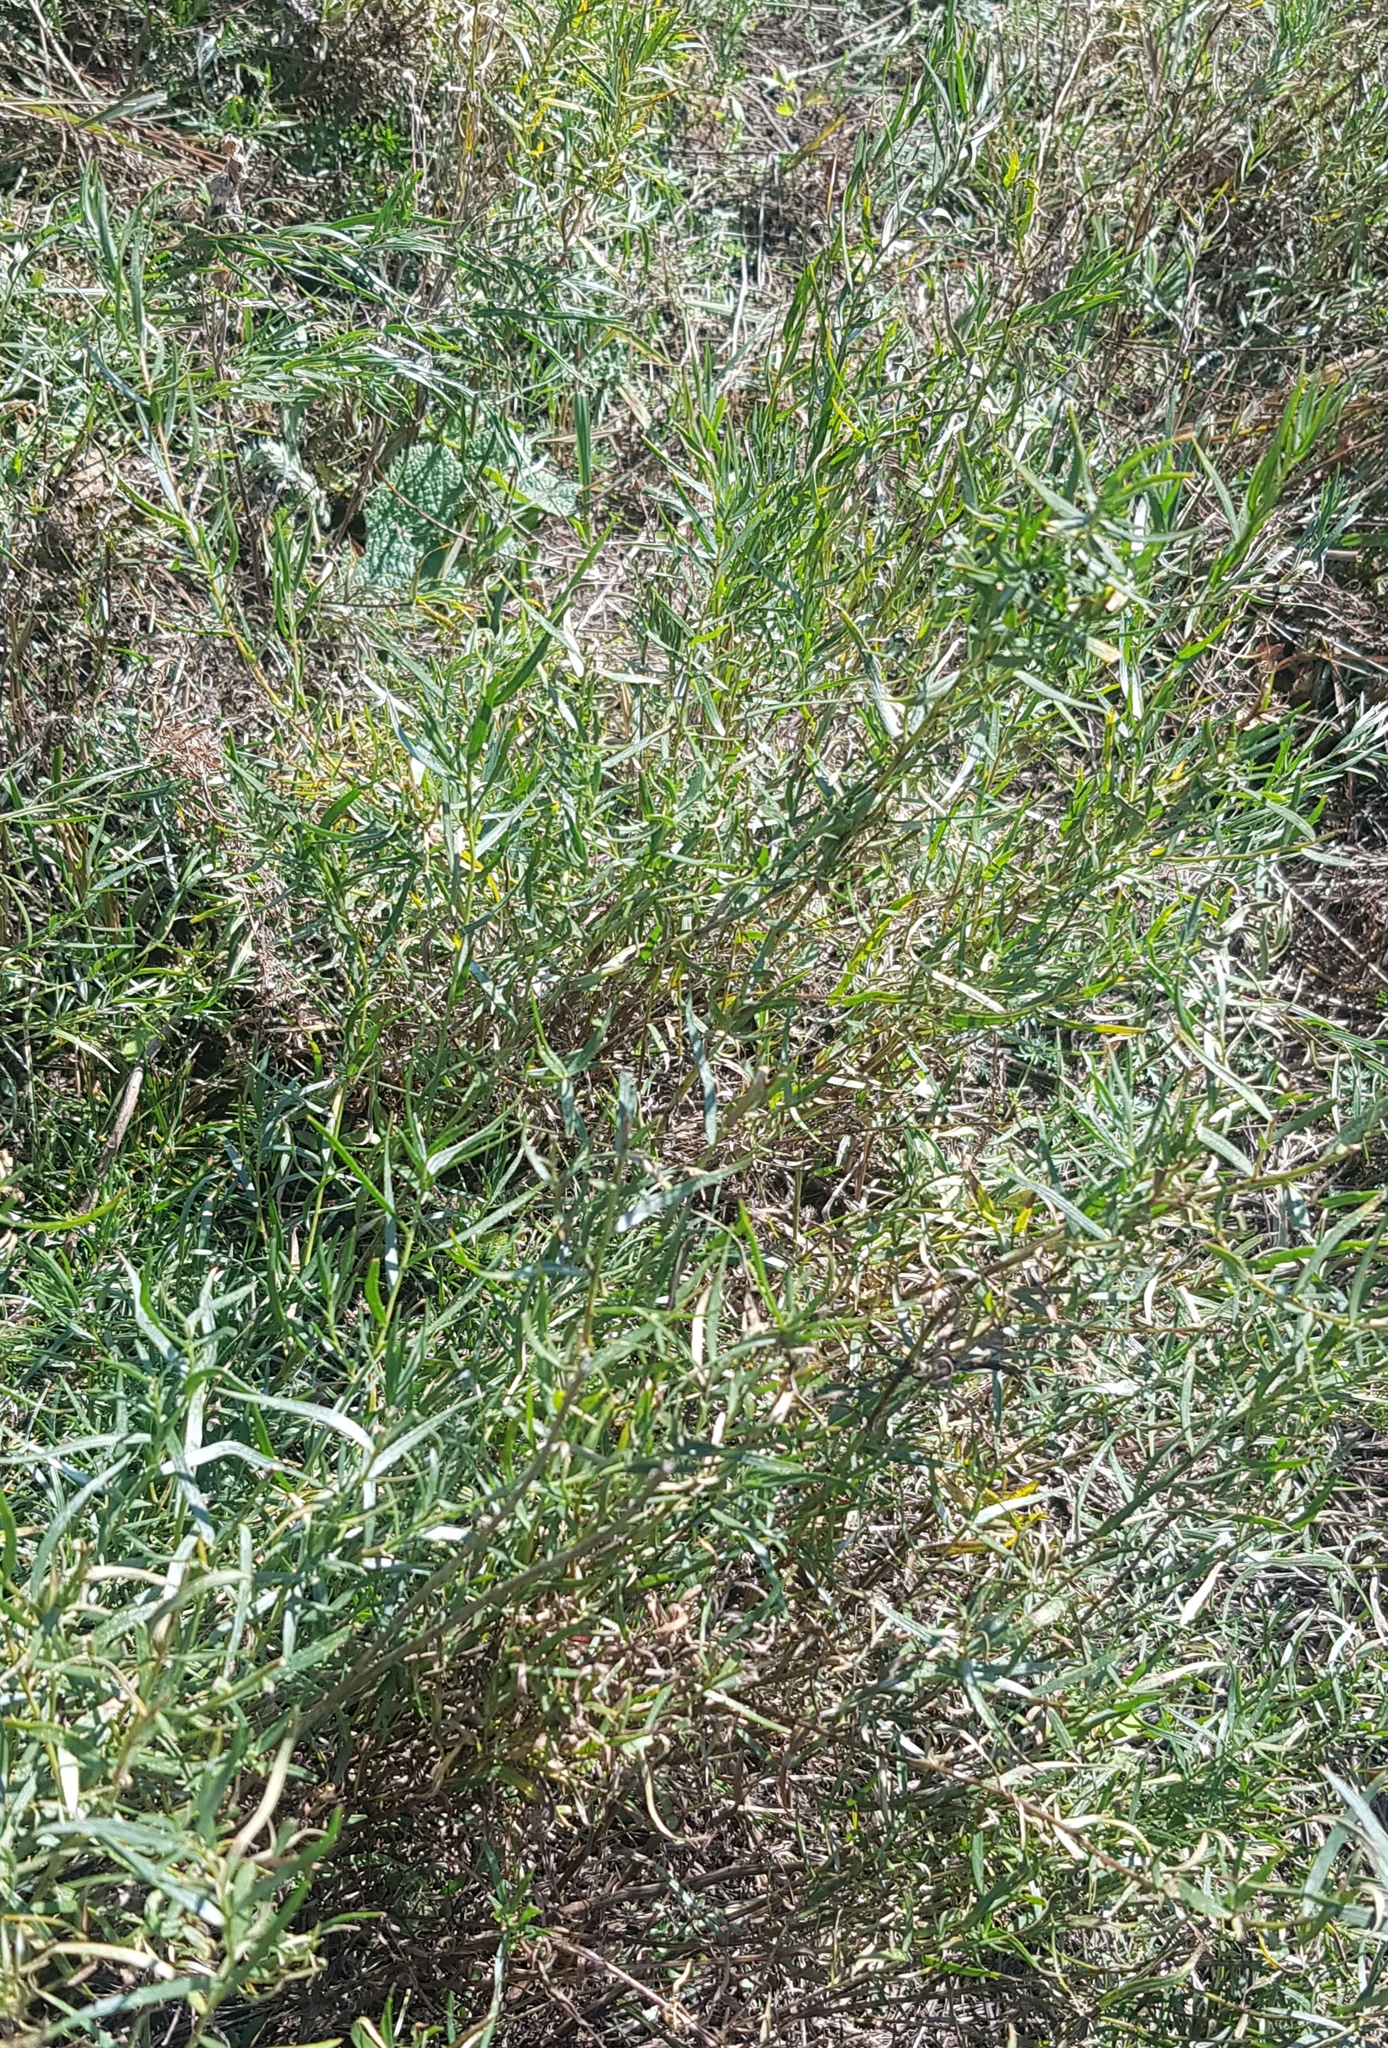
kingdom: Plantae
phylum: Tracheophyta
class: Magnoliopsida
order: Asterales
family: Asteraceae
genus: Artemisia
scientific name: Artemisia dracunculus
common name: Tarragon
